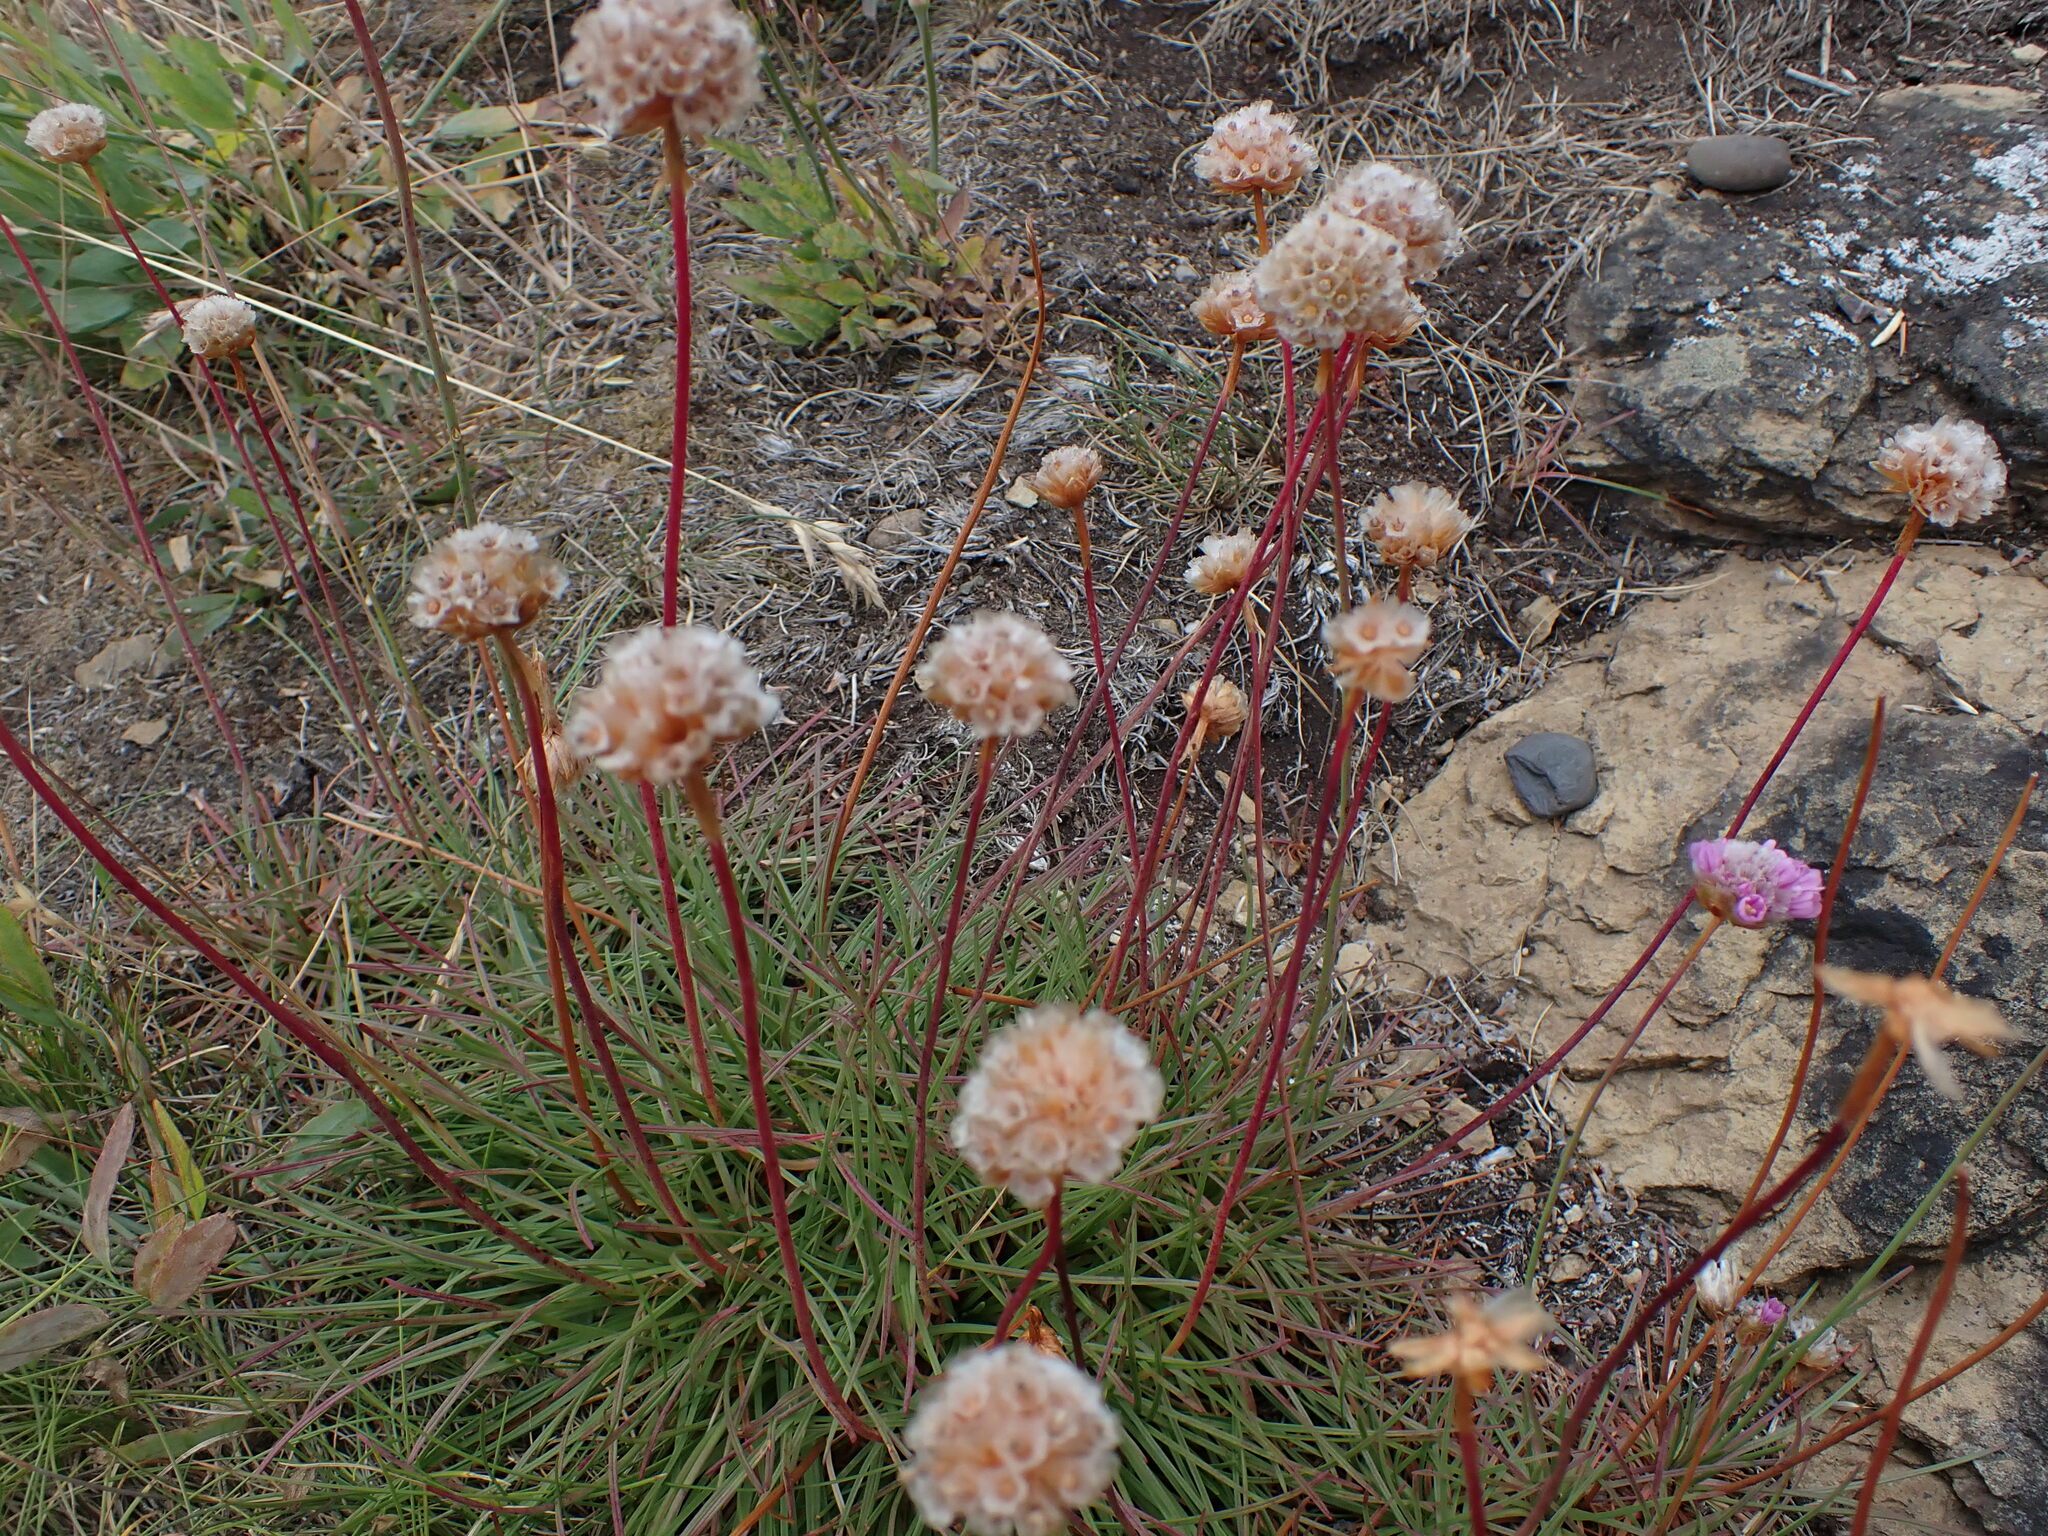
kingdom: Plantae
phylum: Tracheophyta
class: Magnoliopsida
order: Caryophyllales
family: Plumbaginaceae
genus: Armeria
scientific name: Armeria maritima
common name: Thrift
